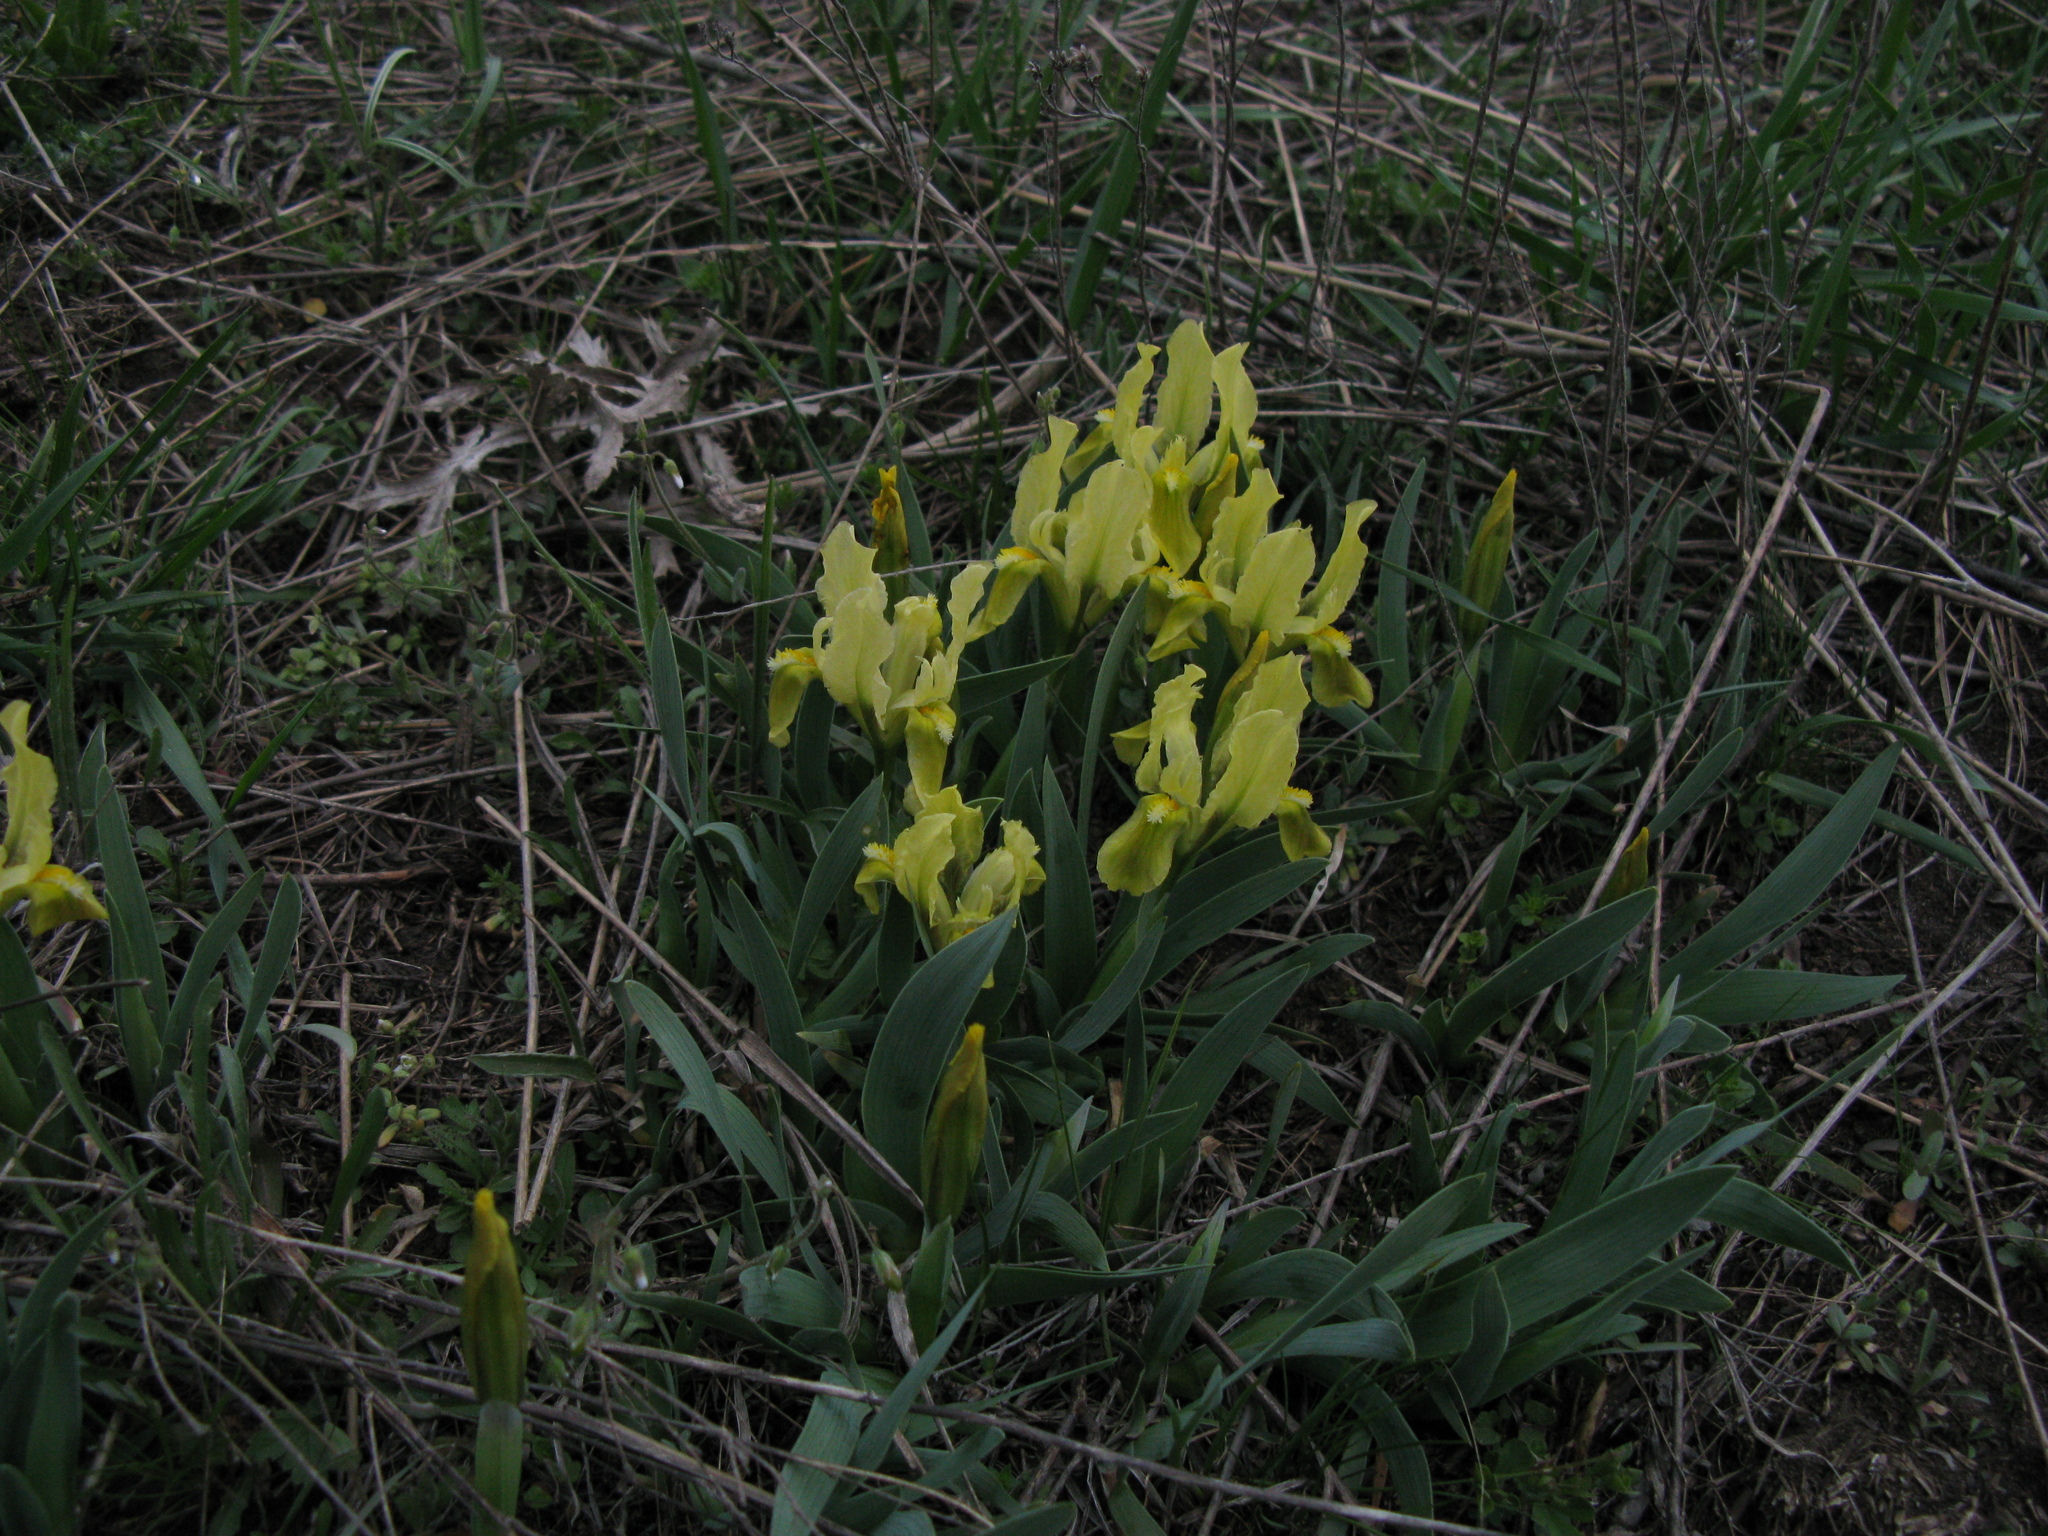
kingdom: Plantae
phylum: Tracheophyta
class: Liliopsida
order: Asparagales
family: Iridaceae
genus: Iris
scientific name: Iris pumila
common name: Dwarf iris
